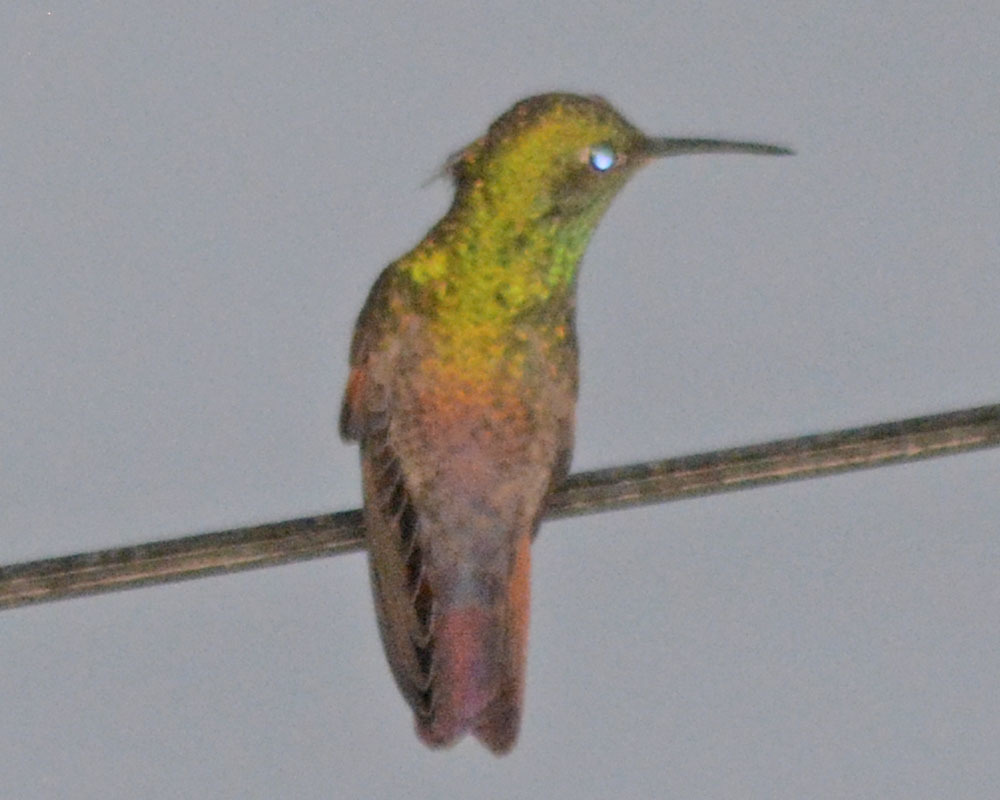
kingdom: Animalia
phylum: Chordata
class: Aves
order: Apodiformes
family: Trochilidae
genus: Saucerottia
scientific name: Saucerottia beryllina
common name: Berylline hummingbird
